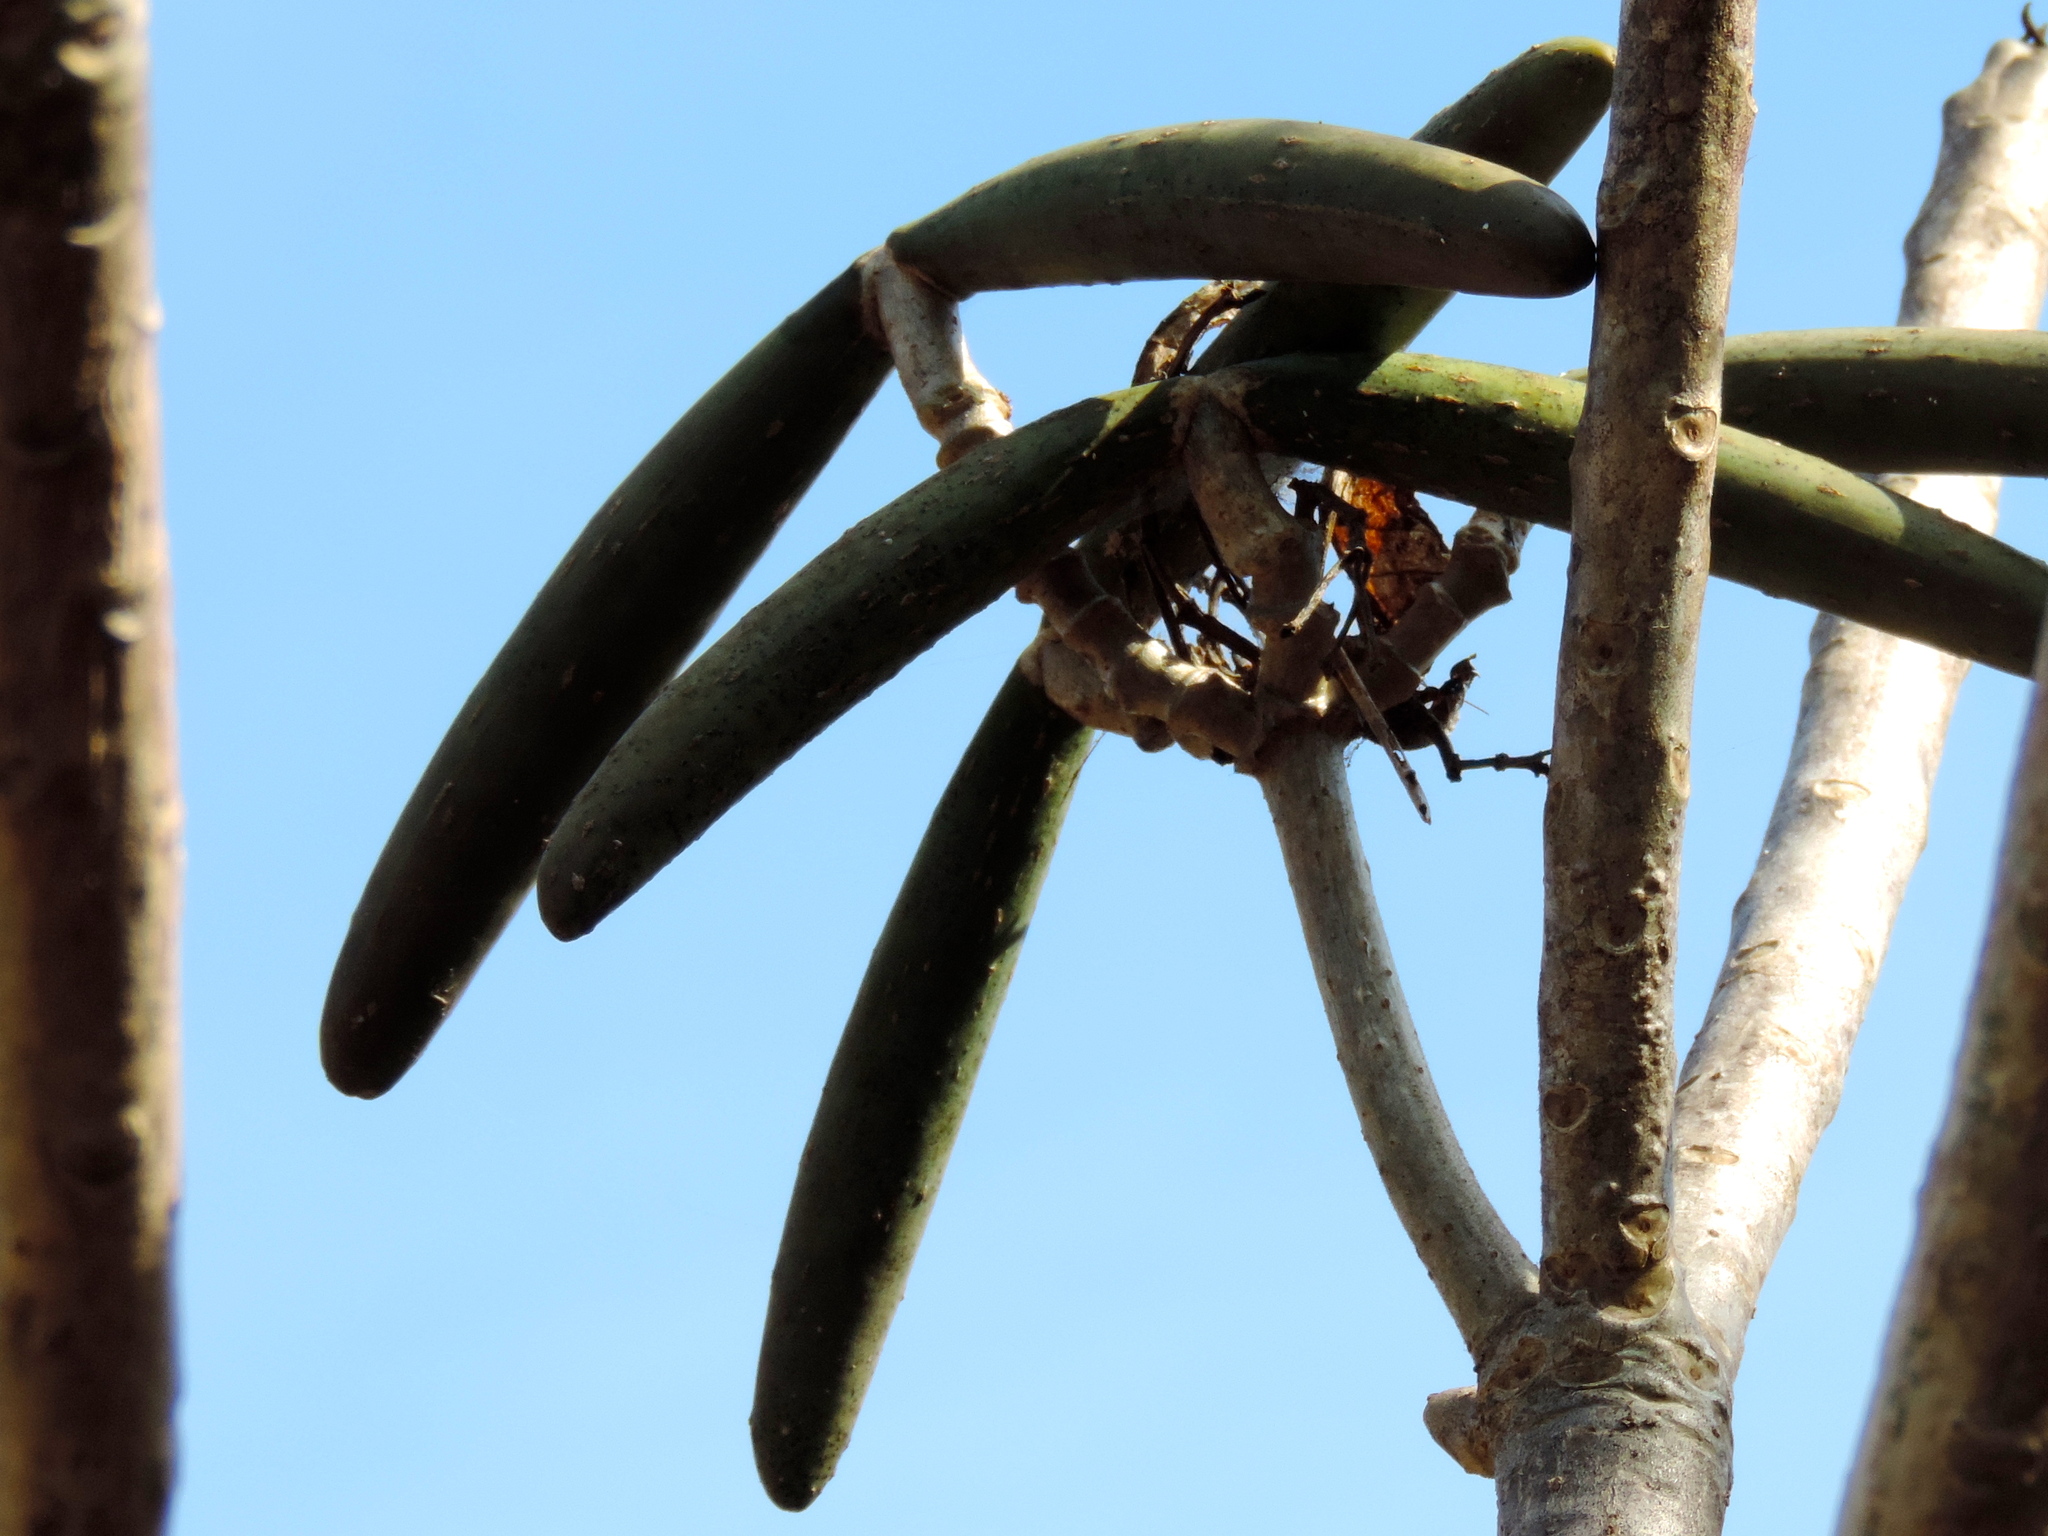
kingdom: Plantae
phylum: Tracheophyta
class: Magnoliopsida
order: Gentianales
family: Apocynaceae
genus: Plumeria
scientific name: Plumeria rubra
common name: Pagoda-tree
